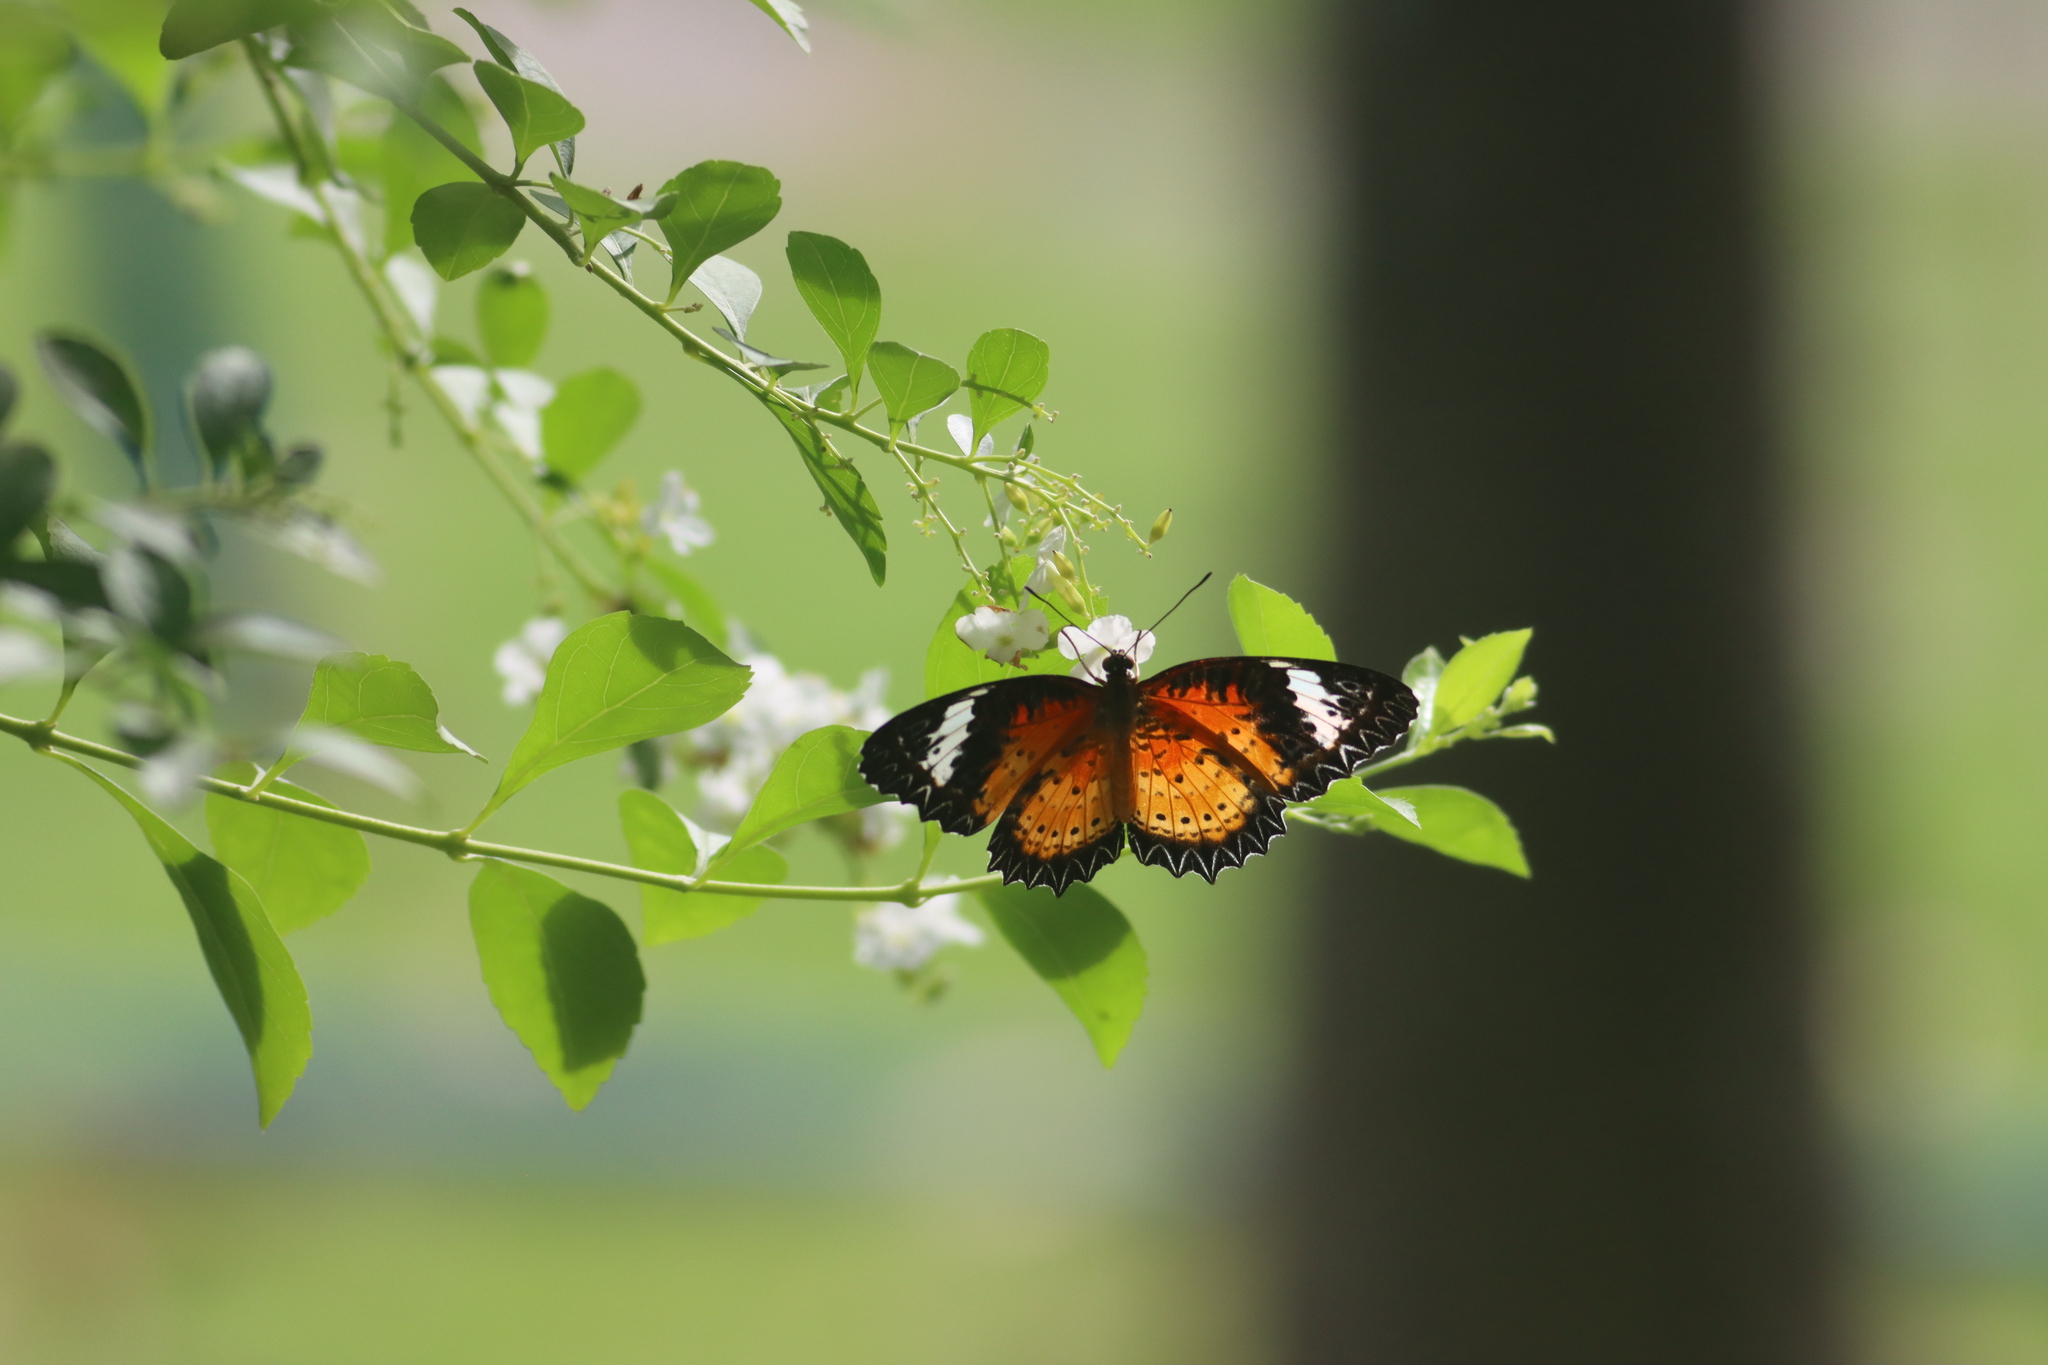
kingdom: Animalia
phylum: Arthropoda
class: Insecta
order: Lepidoptera
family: Nymphalidae
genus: Cethosia
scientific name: Cethosia cyane
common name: Leopard lacewing butterfly
